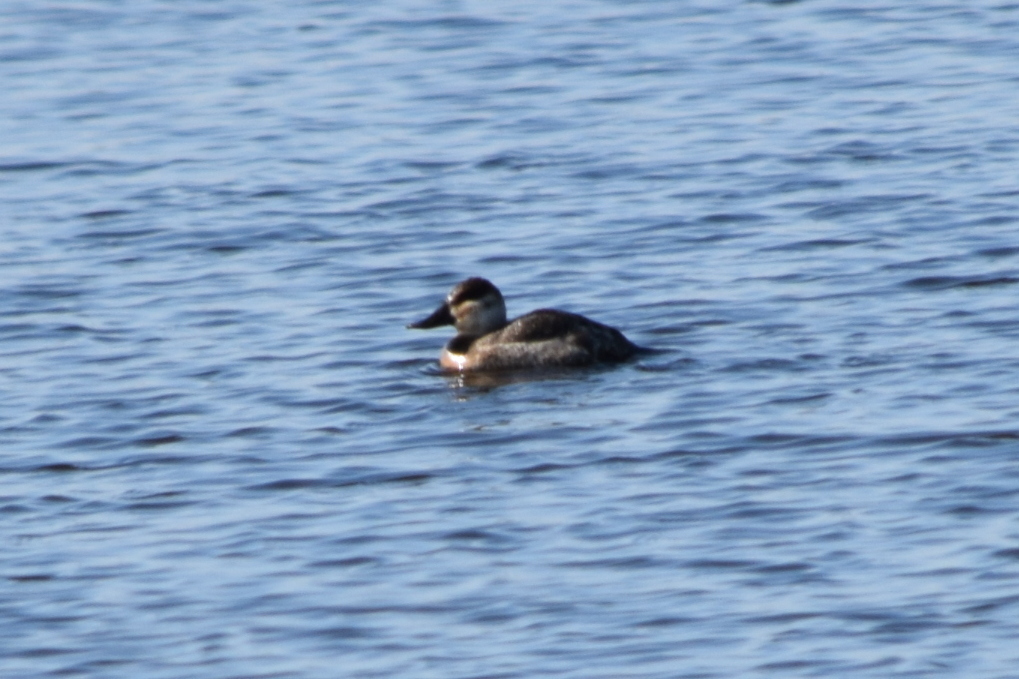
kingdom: Animalia
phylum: Chordata
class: Aves
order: Anseriformes
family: Anatidae
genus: Oxyura
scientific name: Oxyura jamaicensis
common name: Ruddy duck
